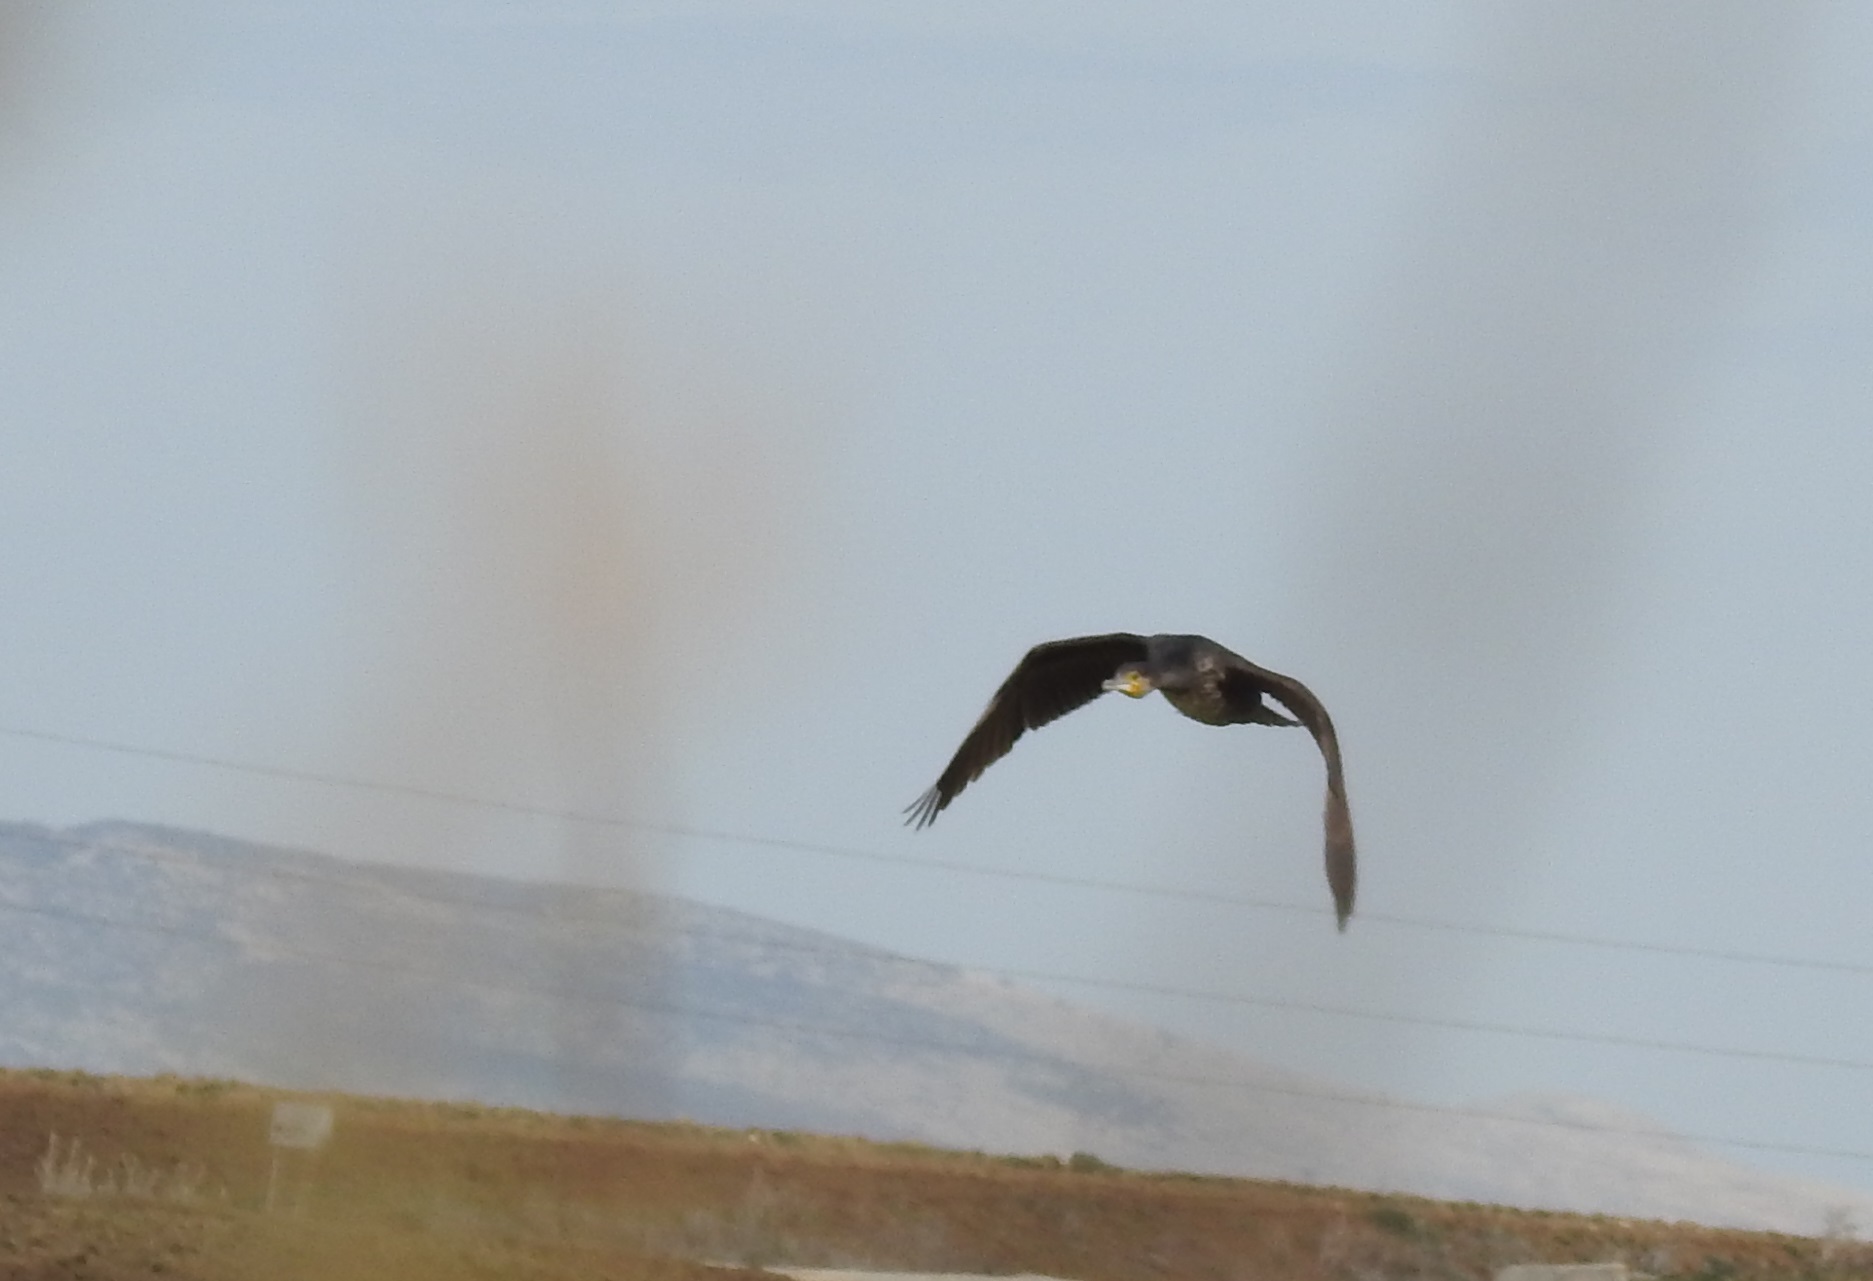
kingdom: Animalia
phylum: Chordata
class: Aves
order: Suliformes
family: Phalacrocoracidae
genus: Phalacrocorax
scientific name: Phalacrocorax carbo
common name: Great cormorant
